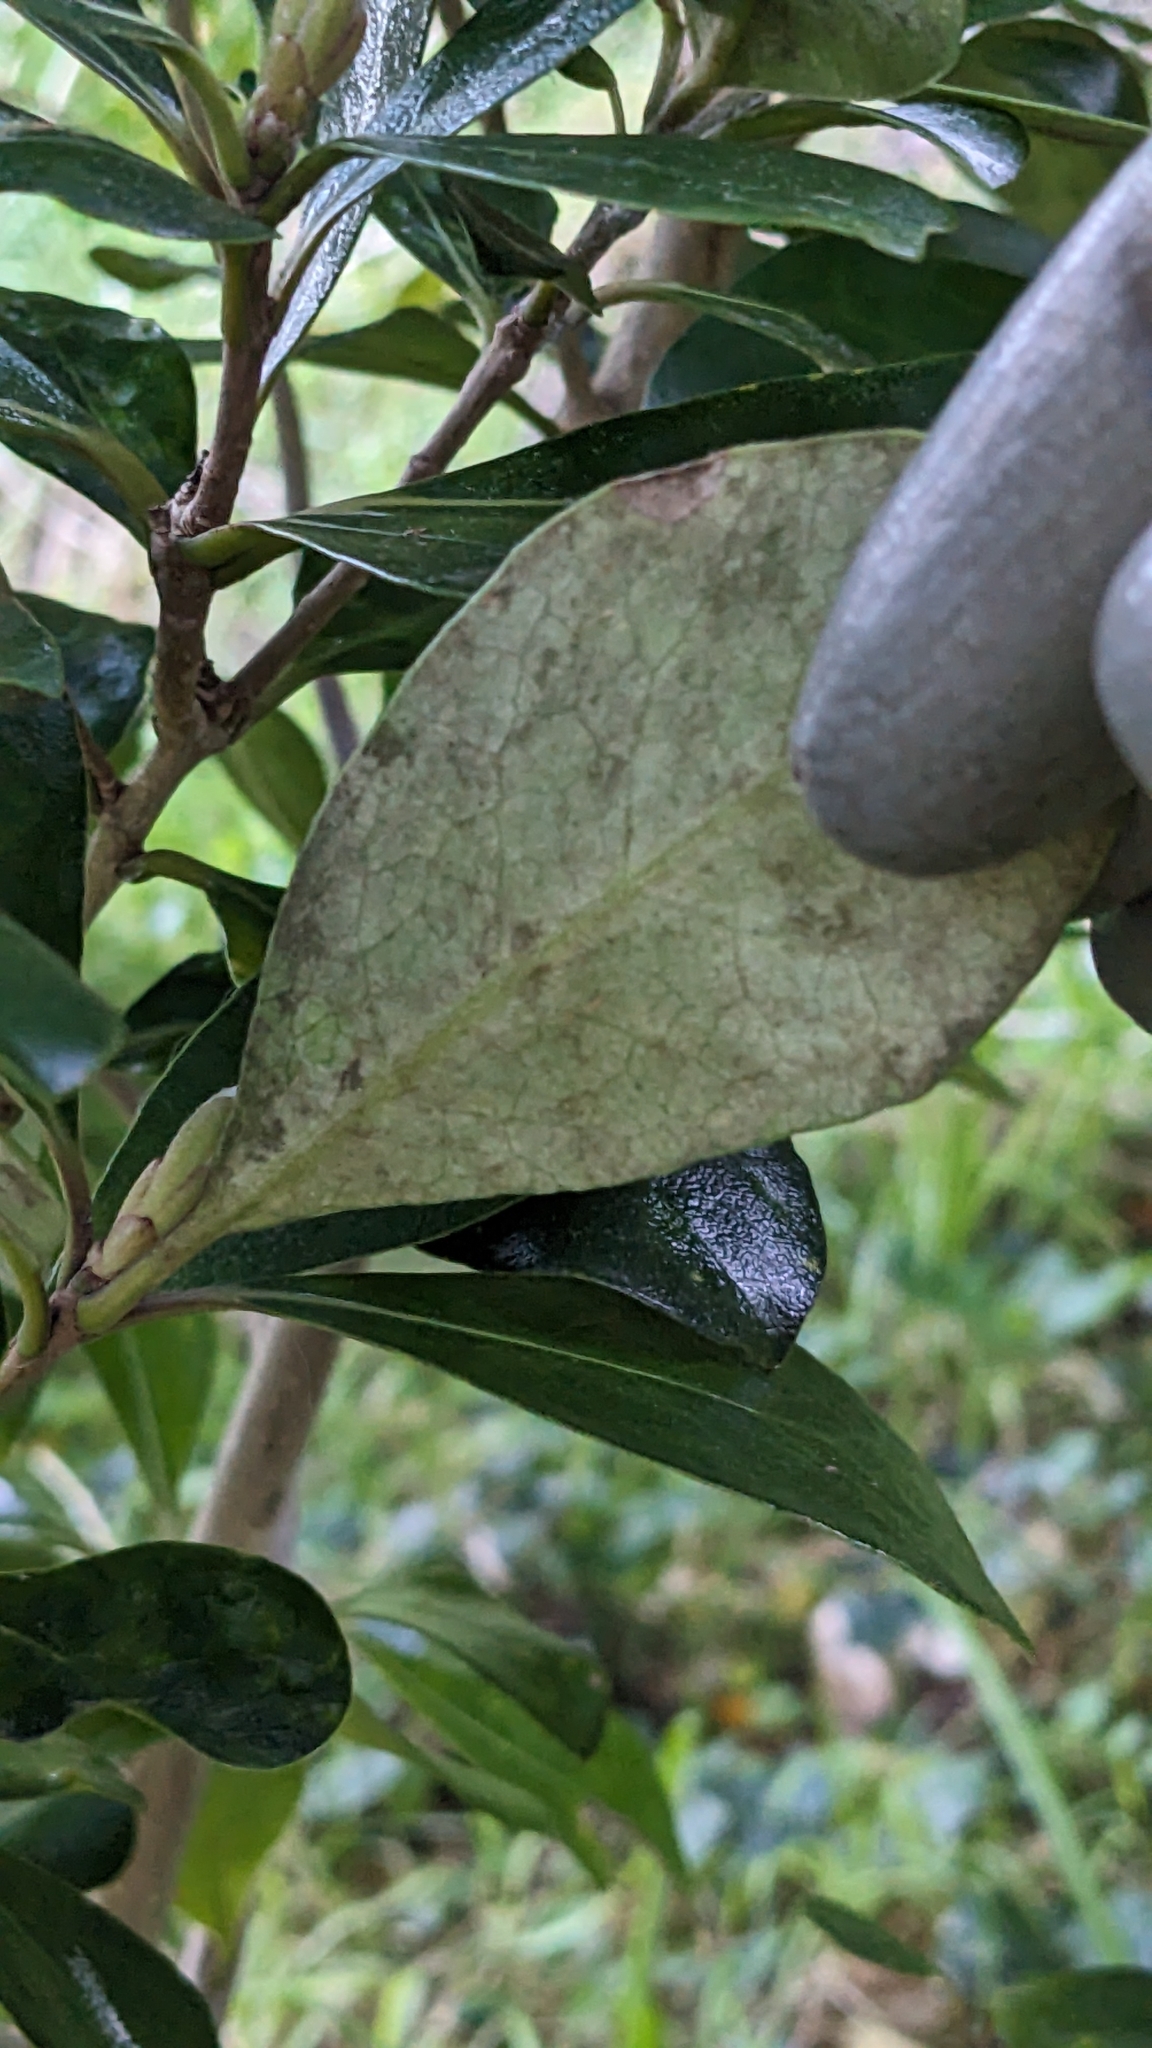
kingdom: Plantae
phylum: Tracheophyta
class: Magnoliopsida
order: Apiales
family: Pittosporaceae
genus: Pittosporum
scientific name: Pittosporum crassifolium
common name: Karo
